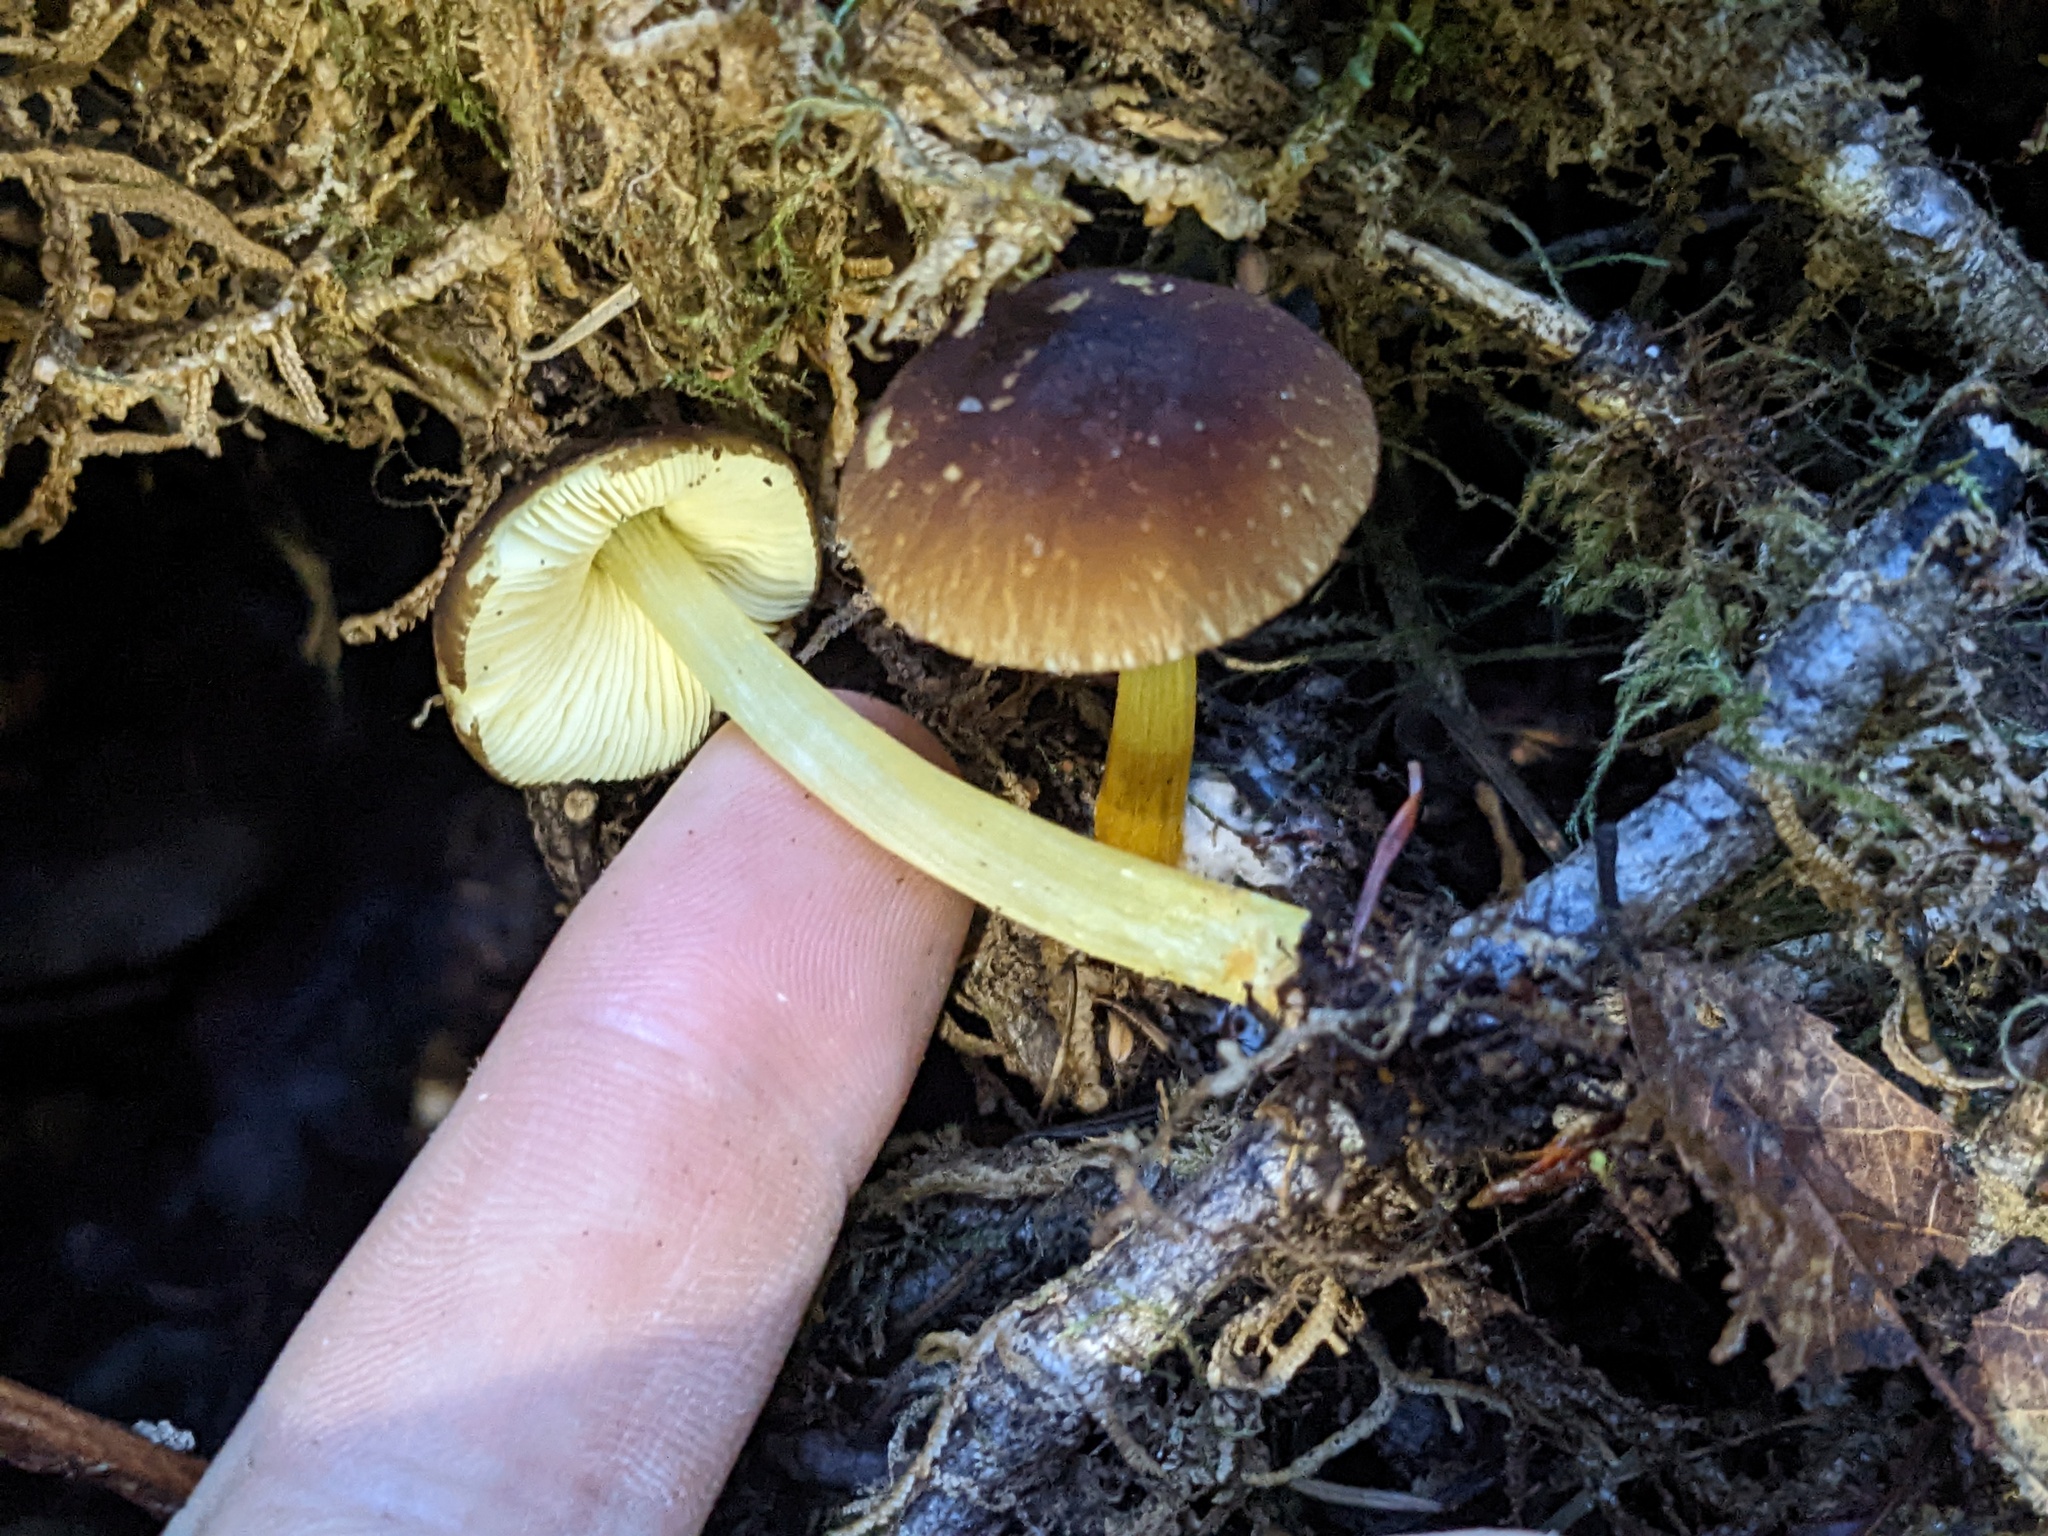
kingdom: Fungi
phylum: Basidiomycota
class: Agaricomycetes
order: Agaricales
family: Pluteaceae
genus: Pluteus
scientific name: Pluteus romellii
